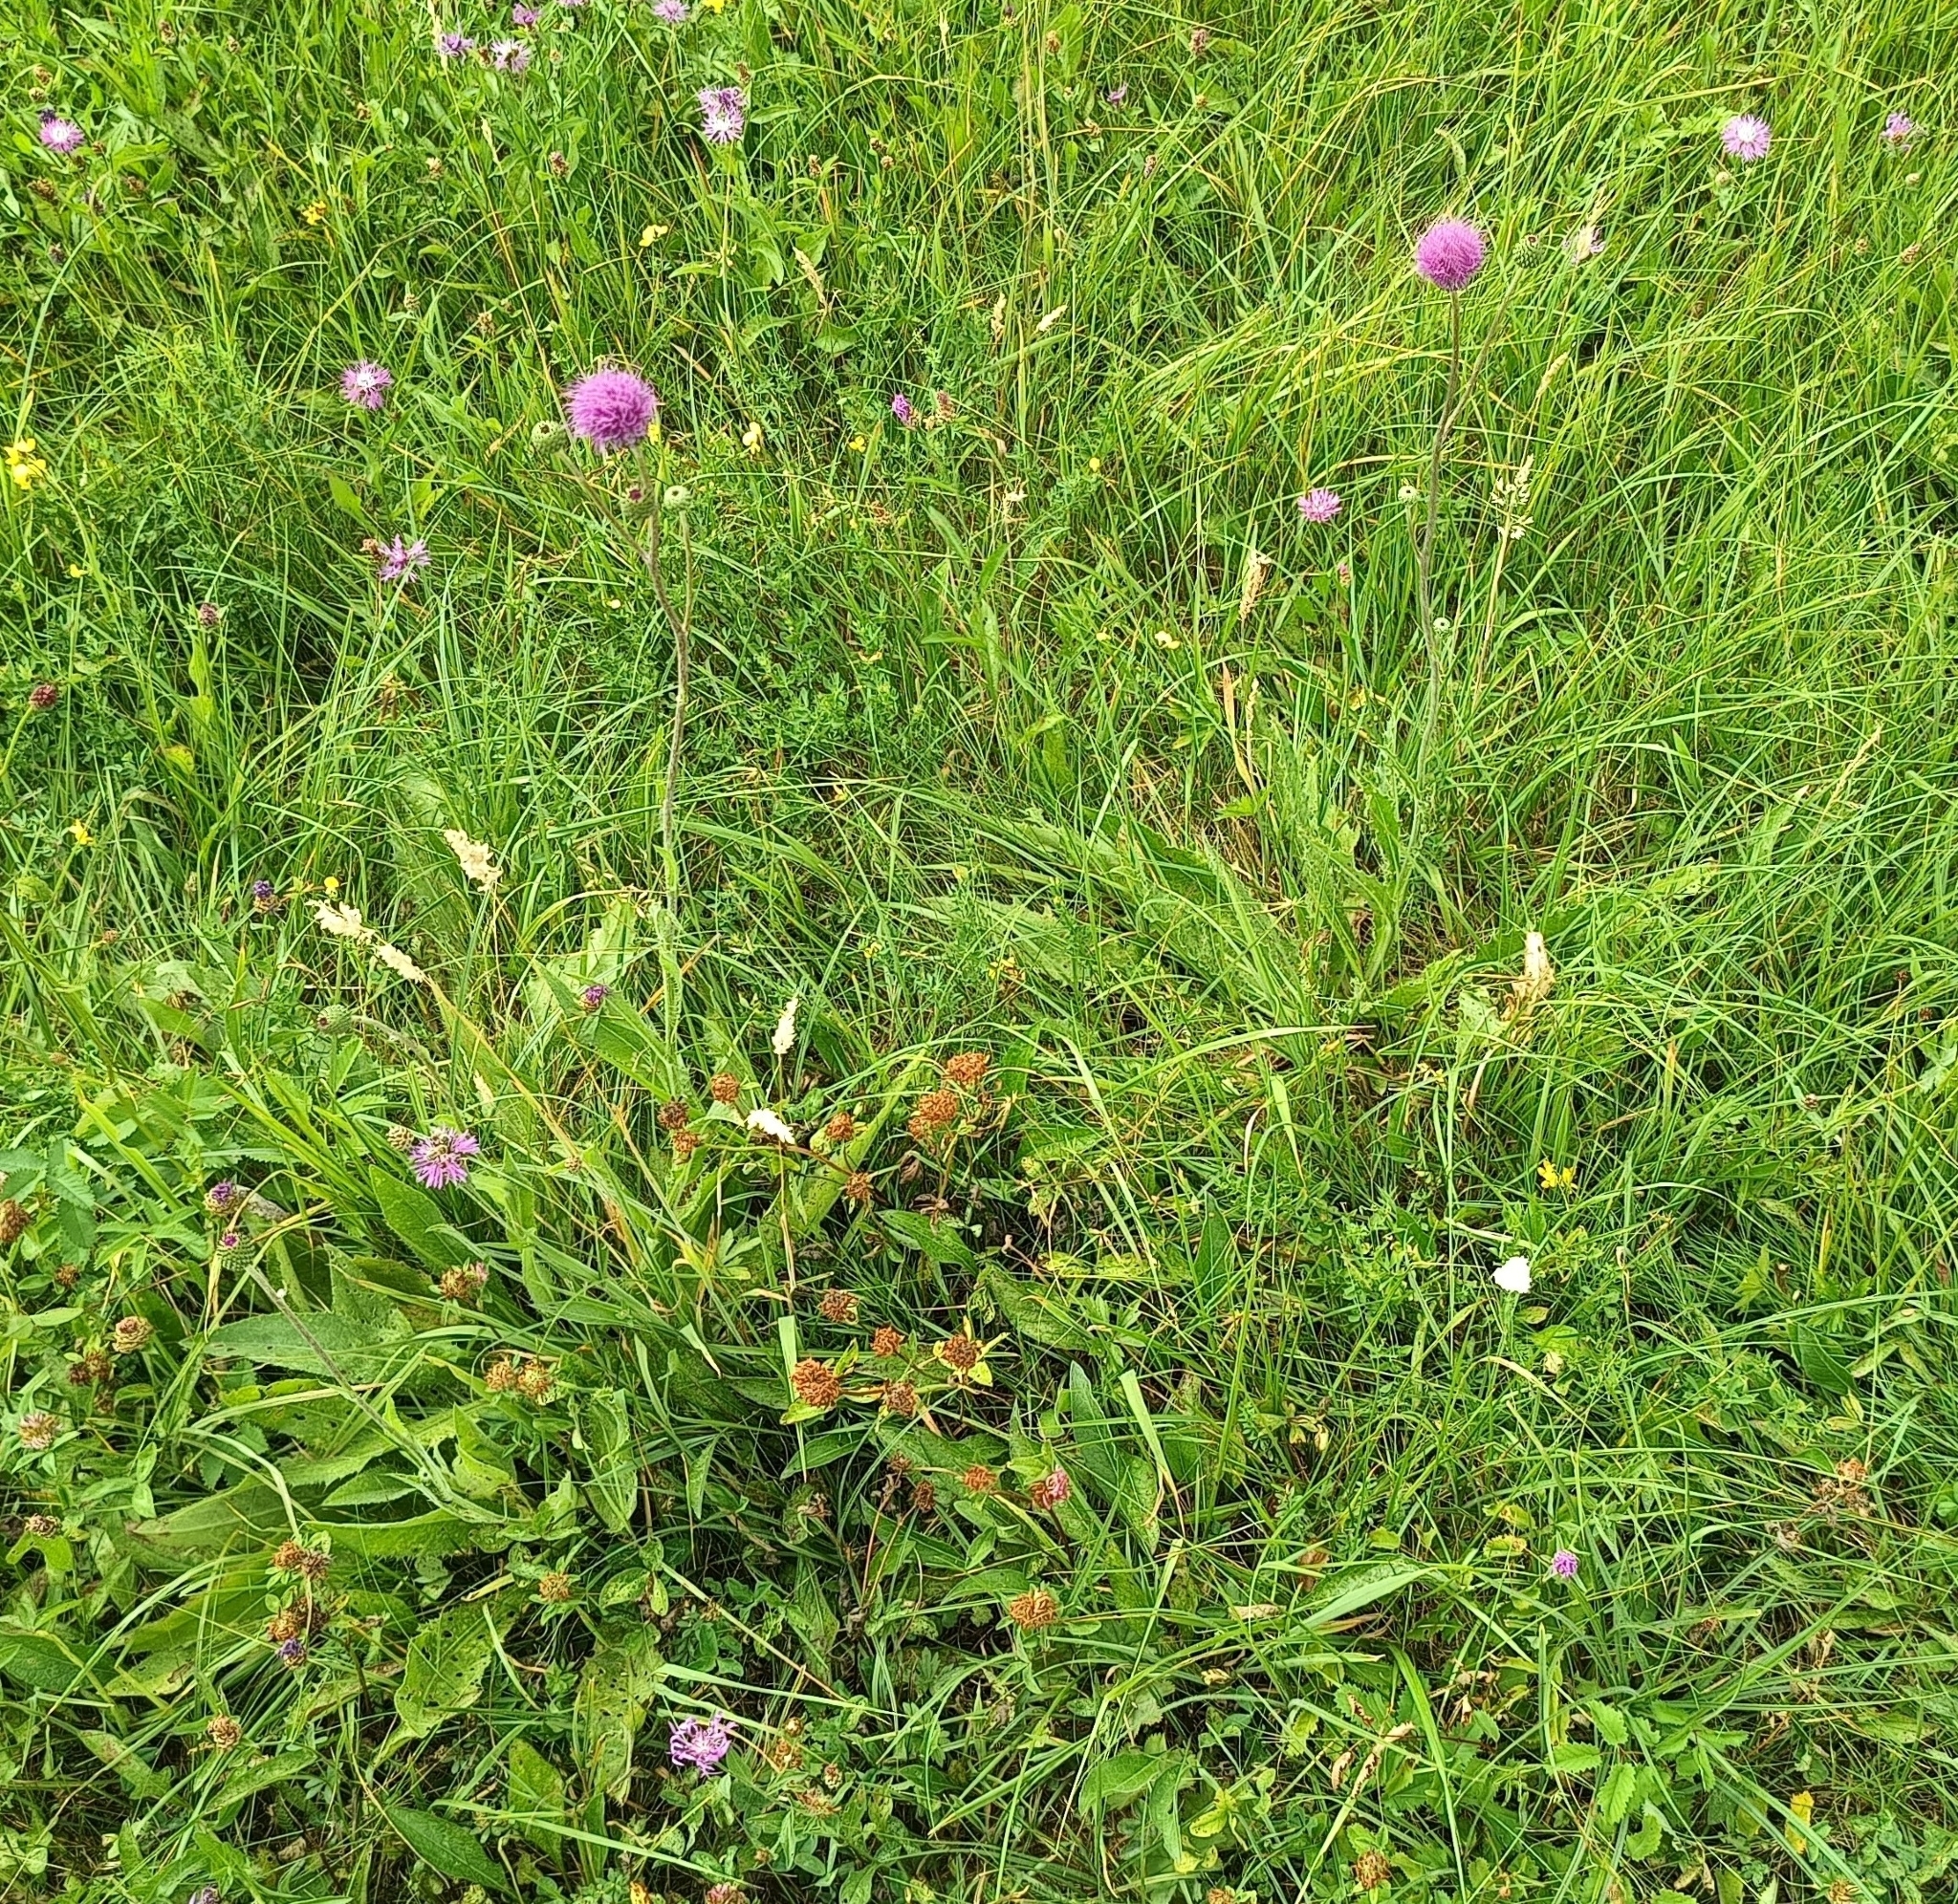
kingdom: Plantae
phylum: Tracheophyta
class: Magnoliopsida
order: Asterales
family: Asteraceae
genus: Cirsium
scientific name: Cirsium canum
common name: Queen anne's thistle
